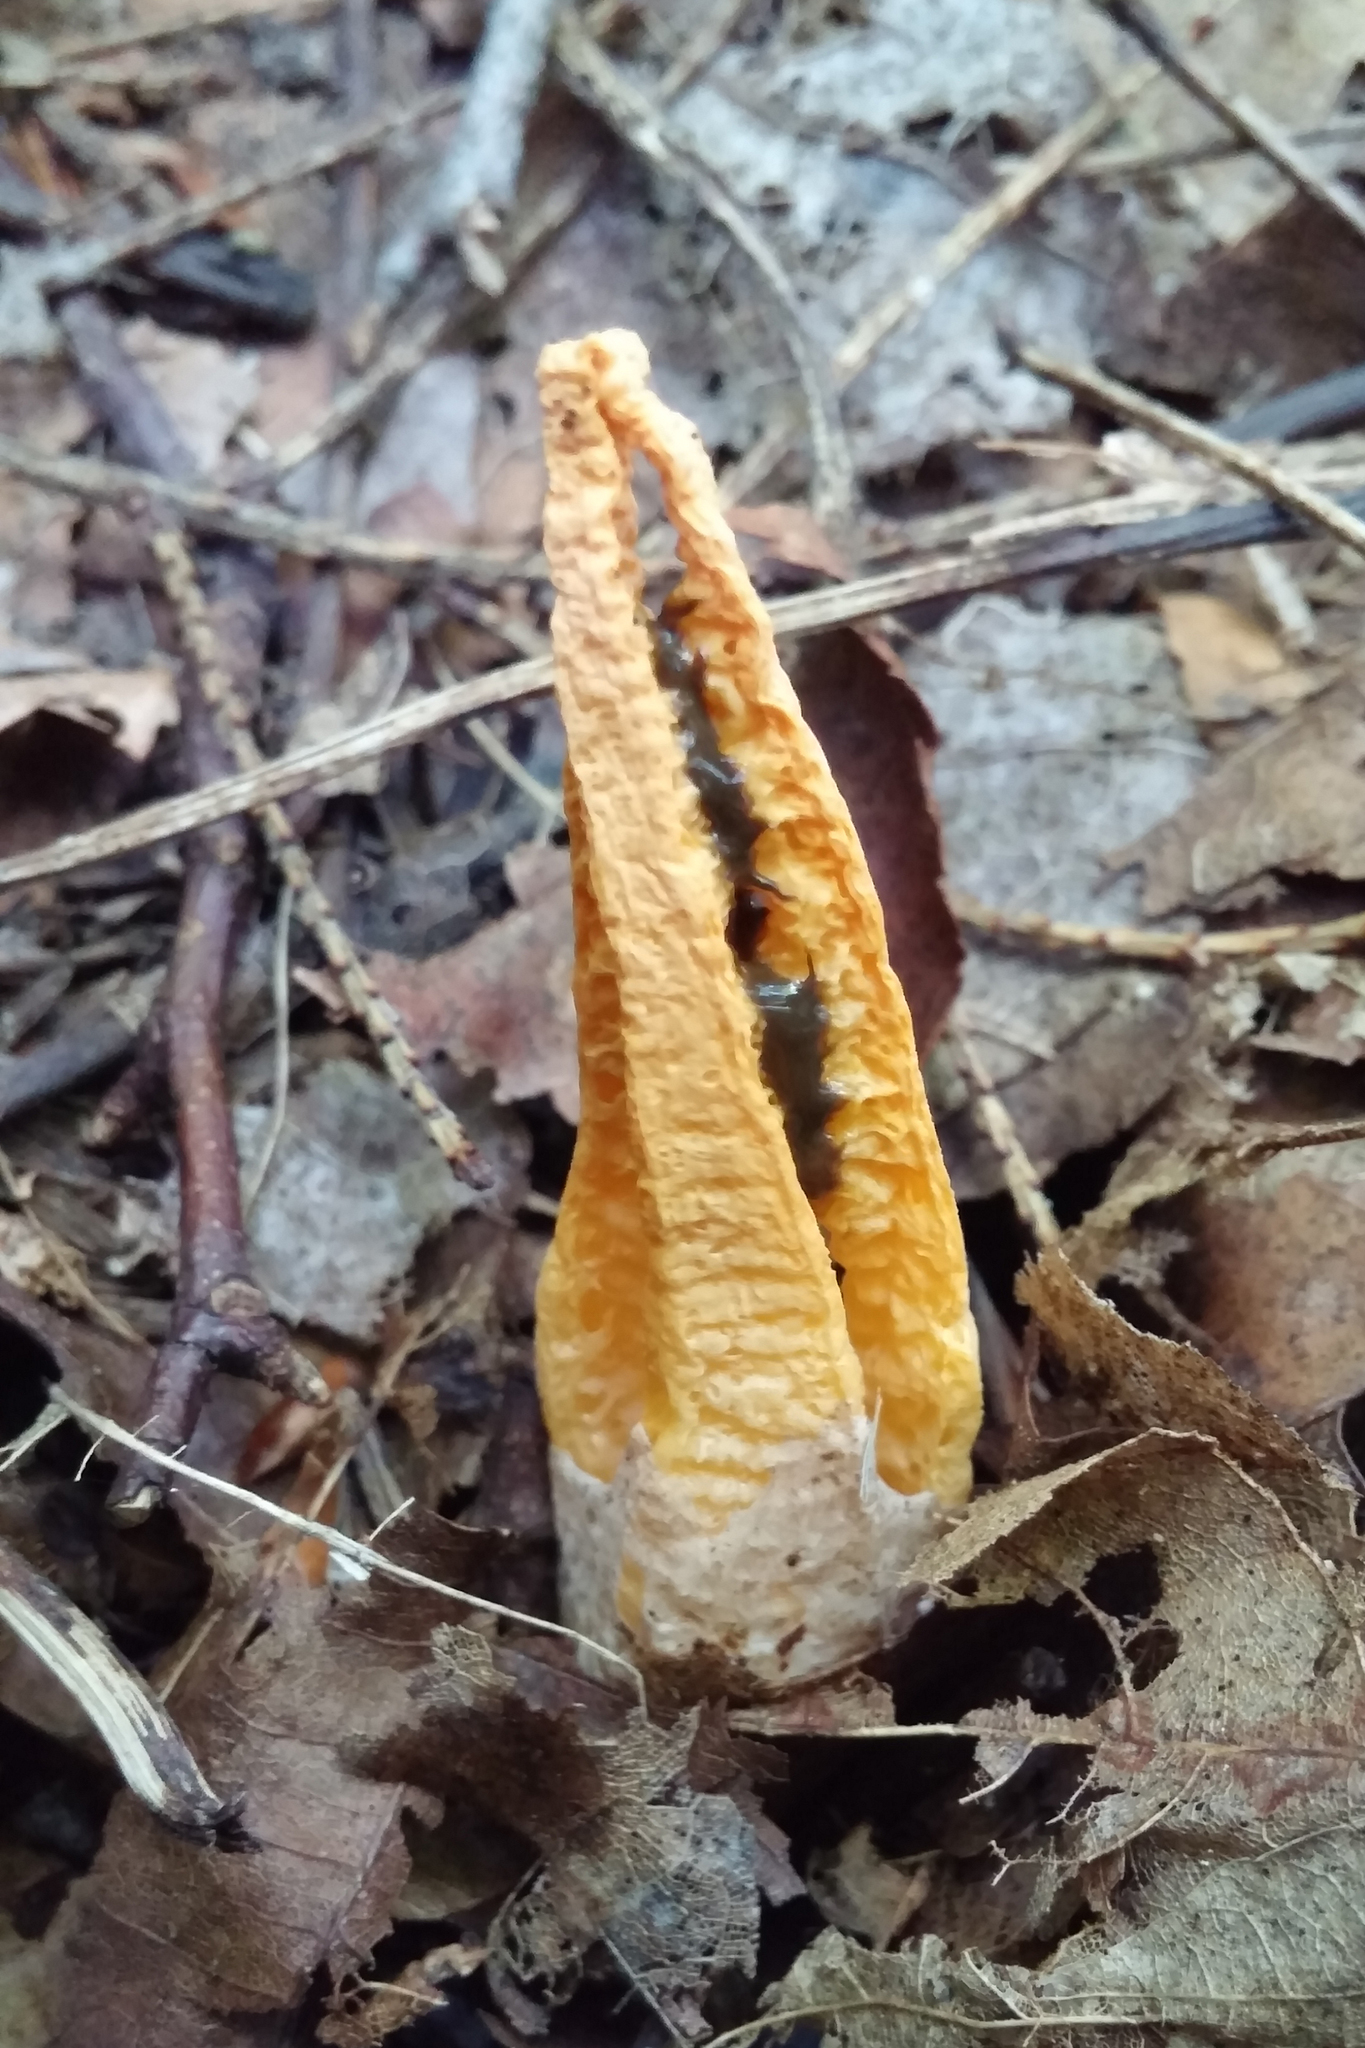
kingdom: Fungi
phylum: Basidiomycota
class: Agaricomycetes
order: Phallales
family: Phallaceae
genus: Pseudocolus
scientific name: Pseudocolus fusiformis
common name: Stinky squid
